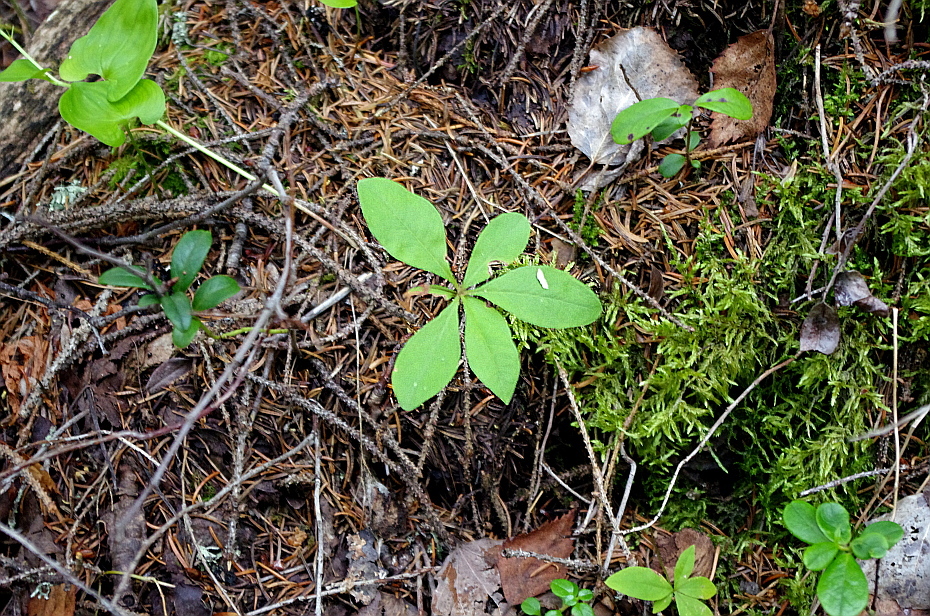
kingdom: Plantae
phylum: Tracheophyta
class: Magnoliopsida
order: Ericales
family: Primulaceae
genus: Lysimachia
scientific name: Lysimachia europaea
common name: Arctic starflower
